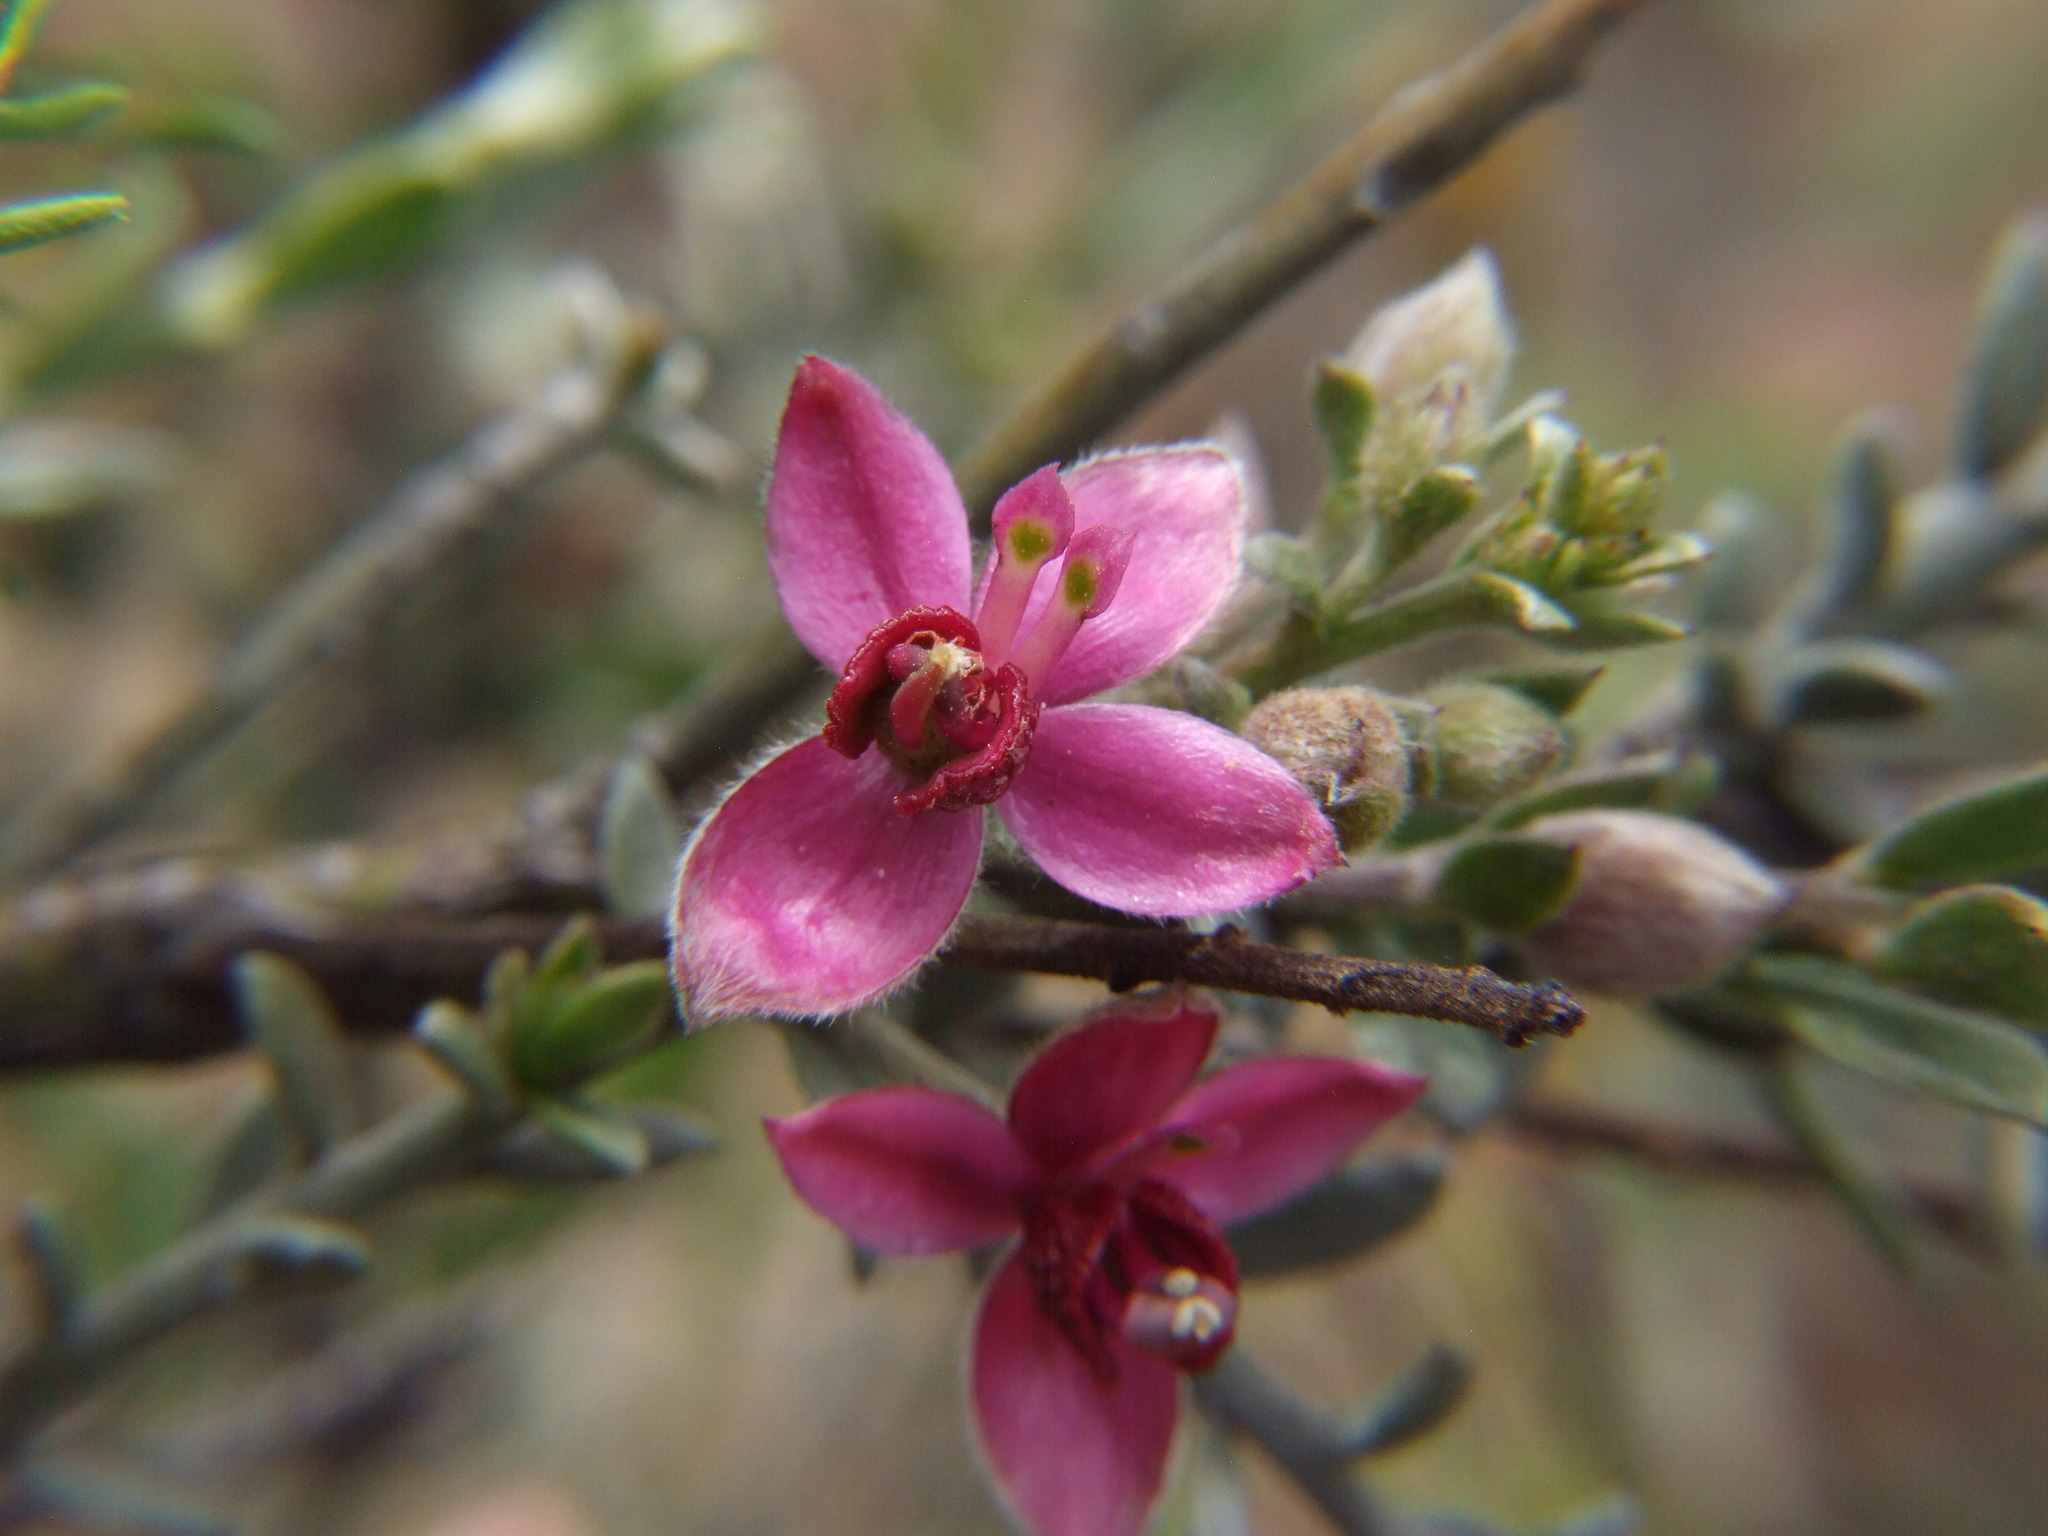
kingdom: Plantae
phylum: Tracheophyta
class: Magnoliopsida
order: Zygophyllales
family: Krameriaceae
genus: Krameria
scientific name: Krameria lappacea
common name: Rhatany
